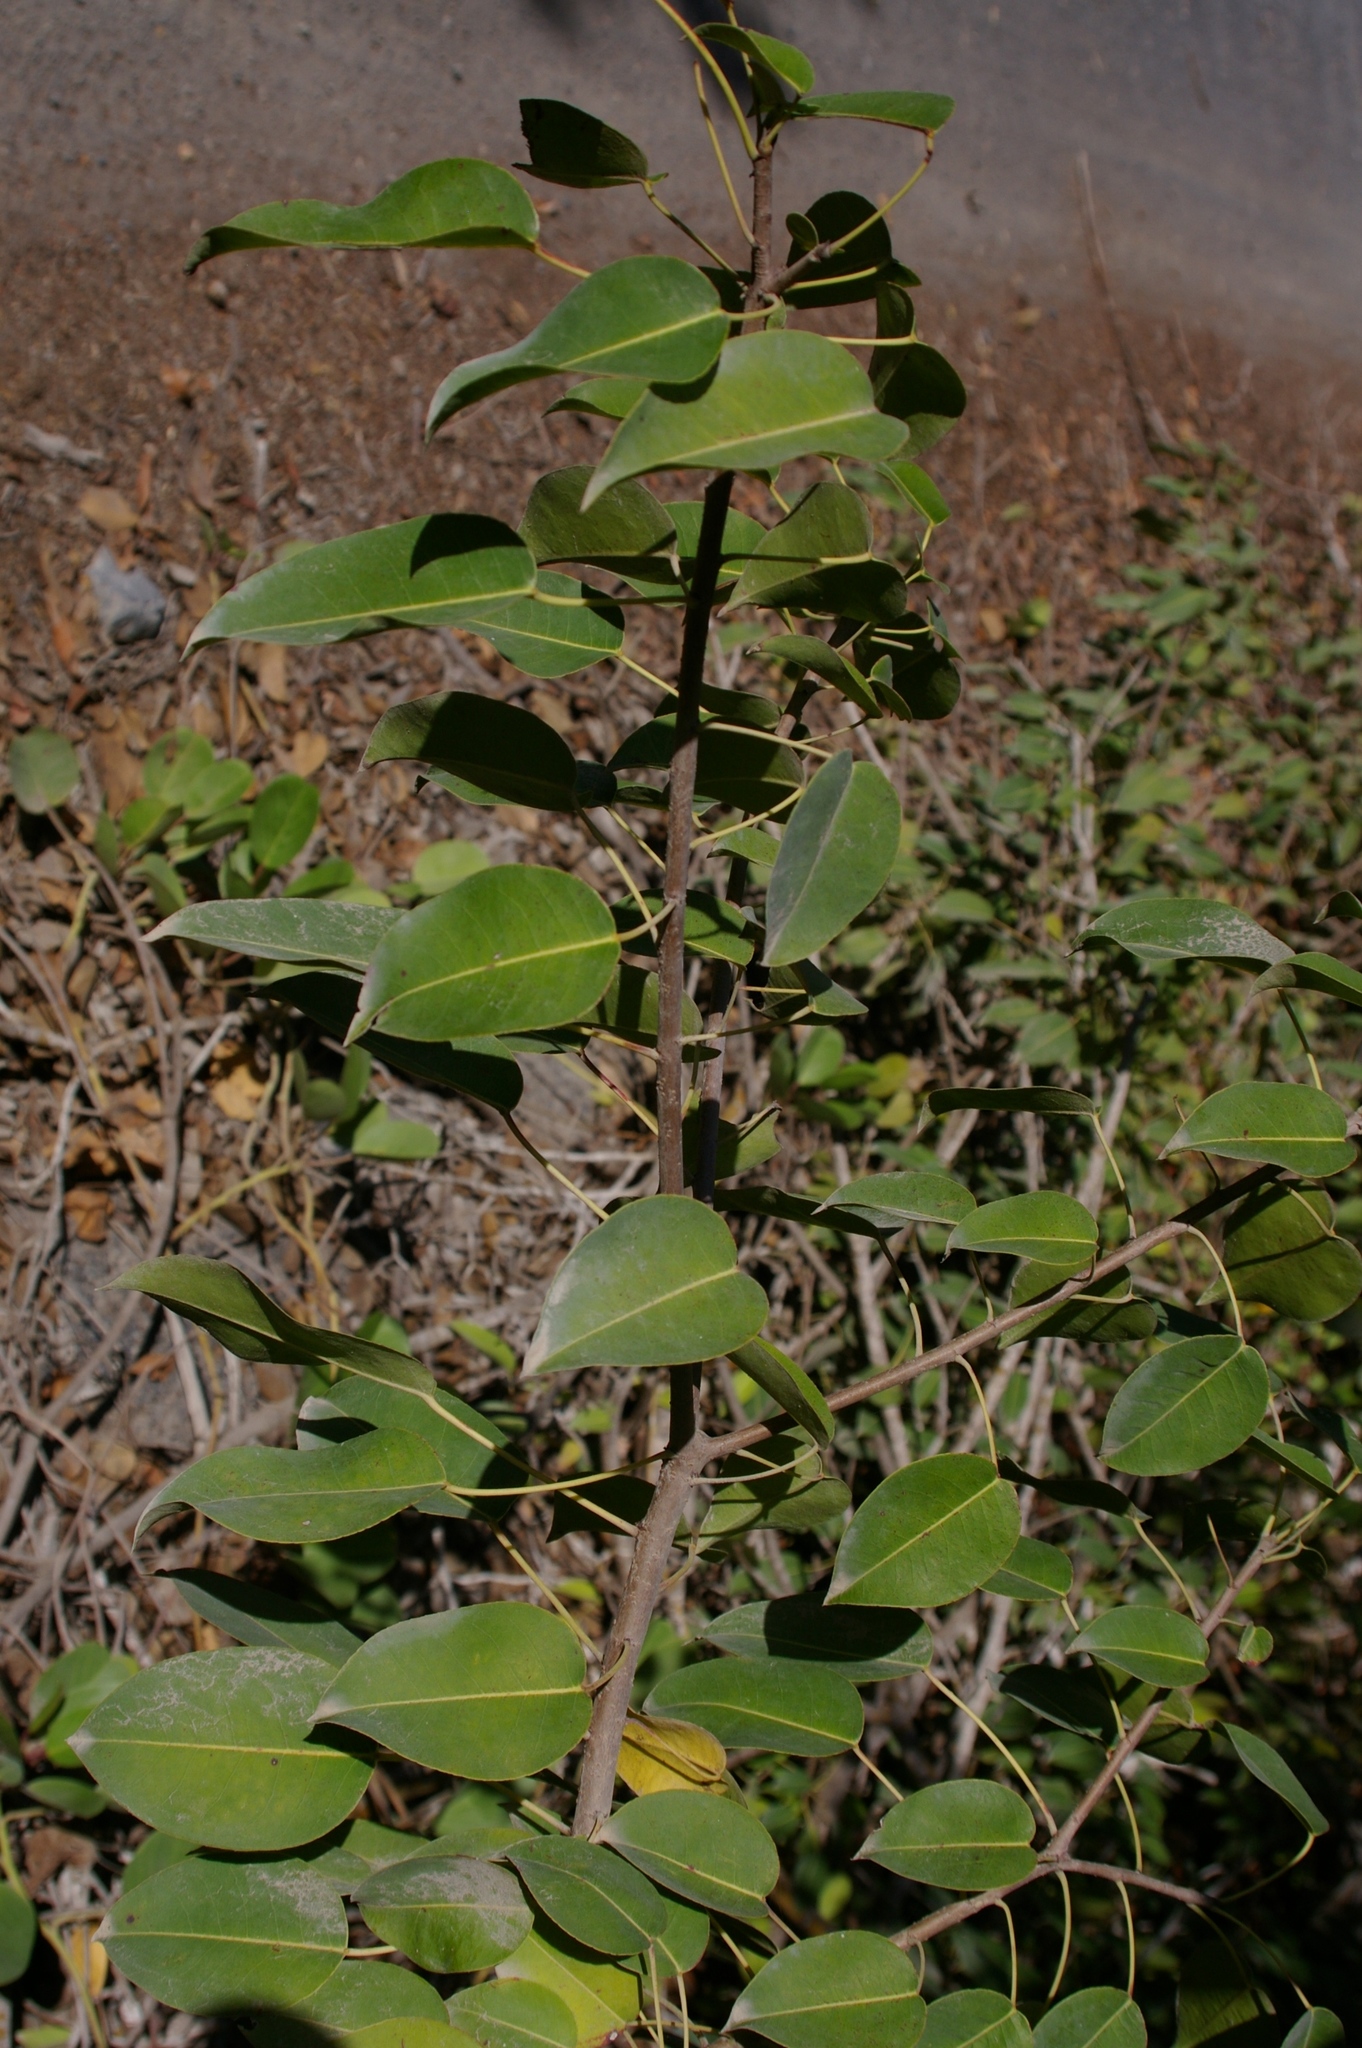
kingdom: Plantae
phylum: Tracheophyta
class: Magnoliopsida
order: Malpighiales
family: Euphorbiaceae
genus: Hippomane
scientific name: Hippomane mancinella
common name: Manchineel
